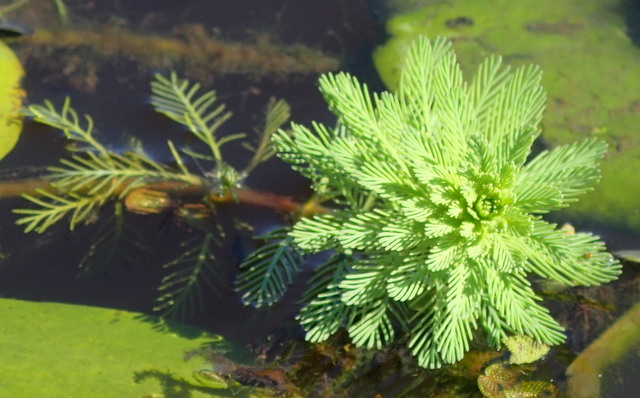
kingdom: Plantae
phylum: Tracheophyta
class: Magnoliopsida
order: Saxifragales
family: Haloragaceae
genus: Myriophyllum
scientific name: Myriophyllum aquaticum
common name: Parrot's feather
